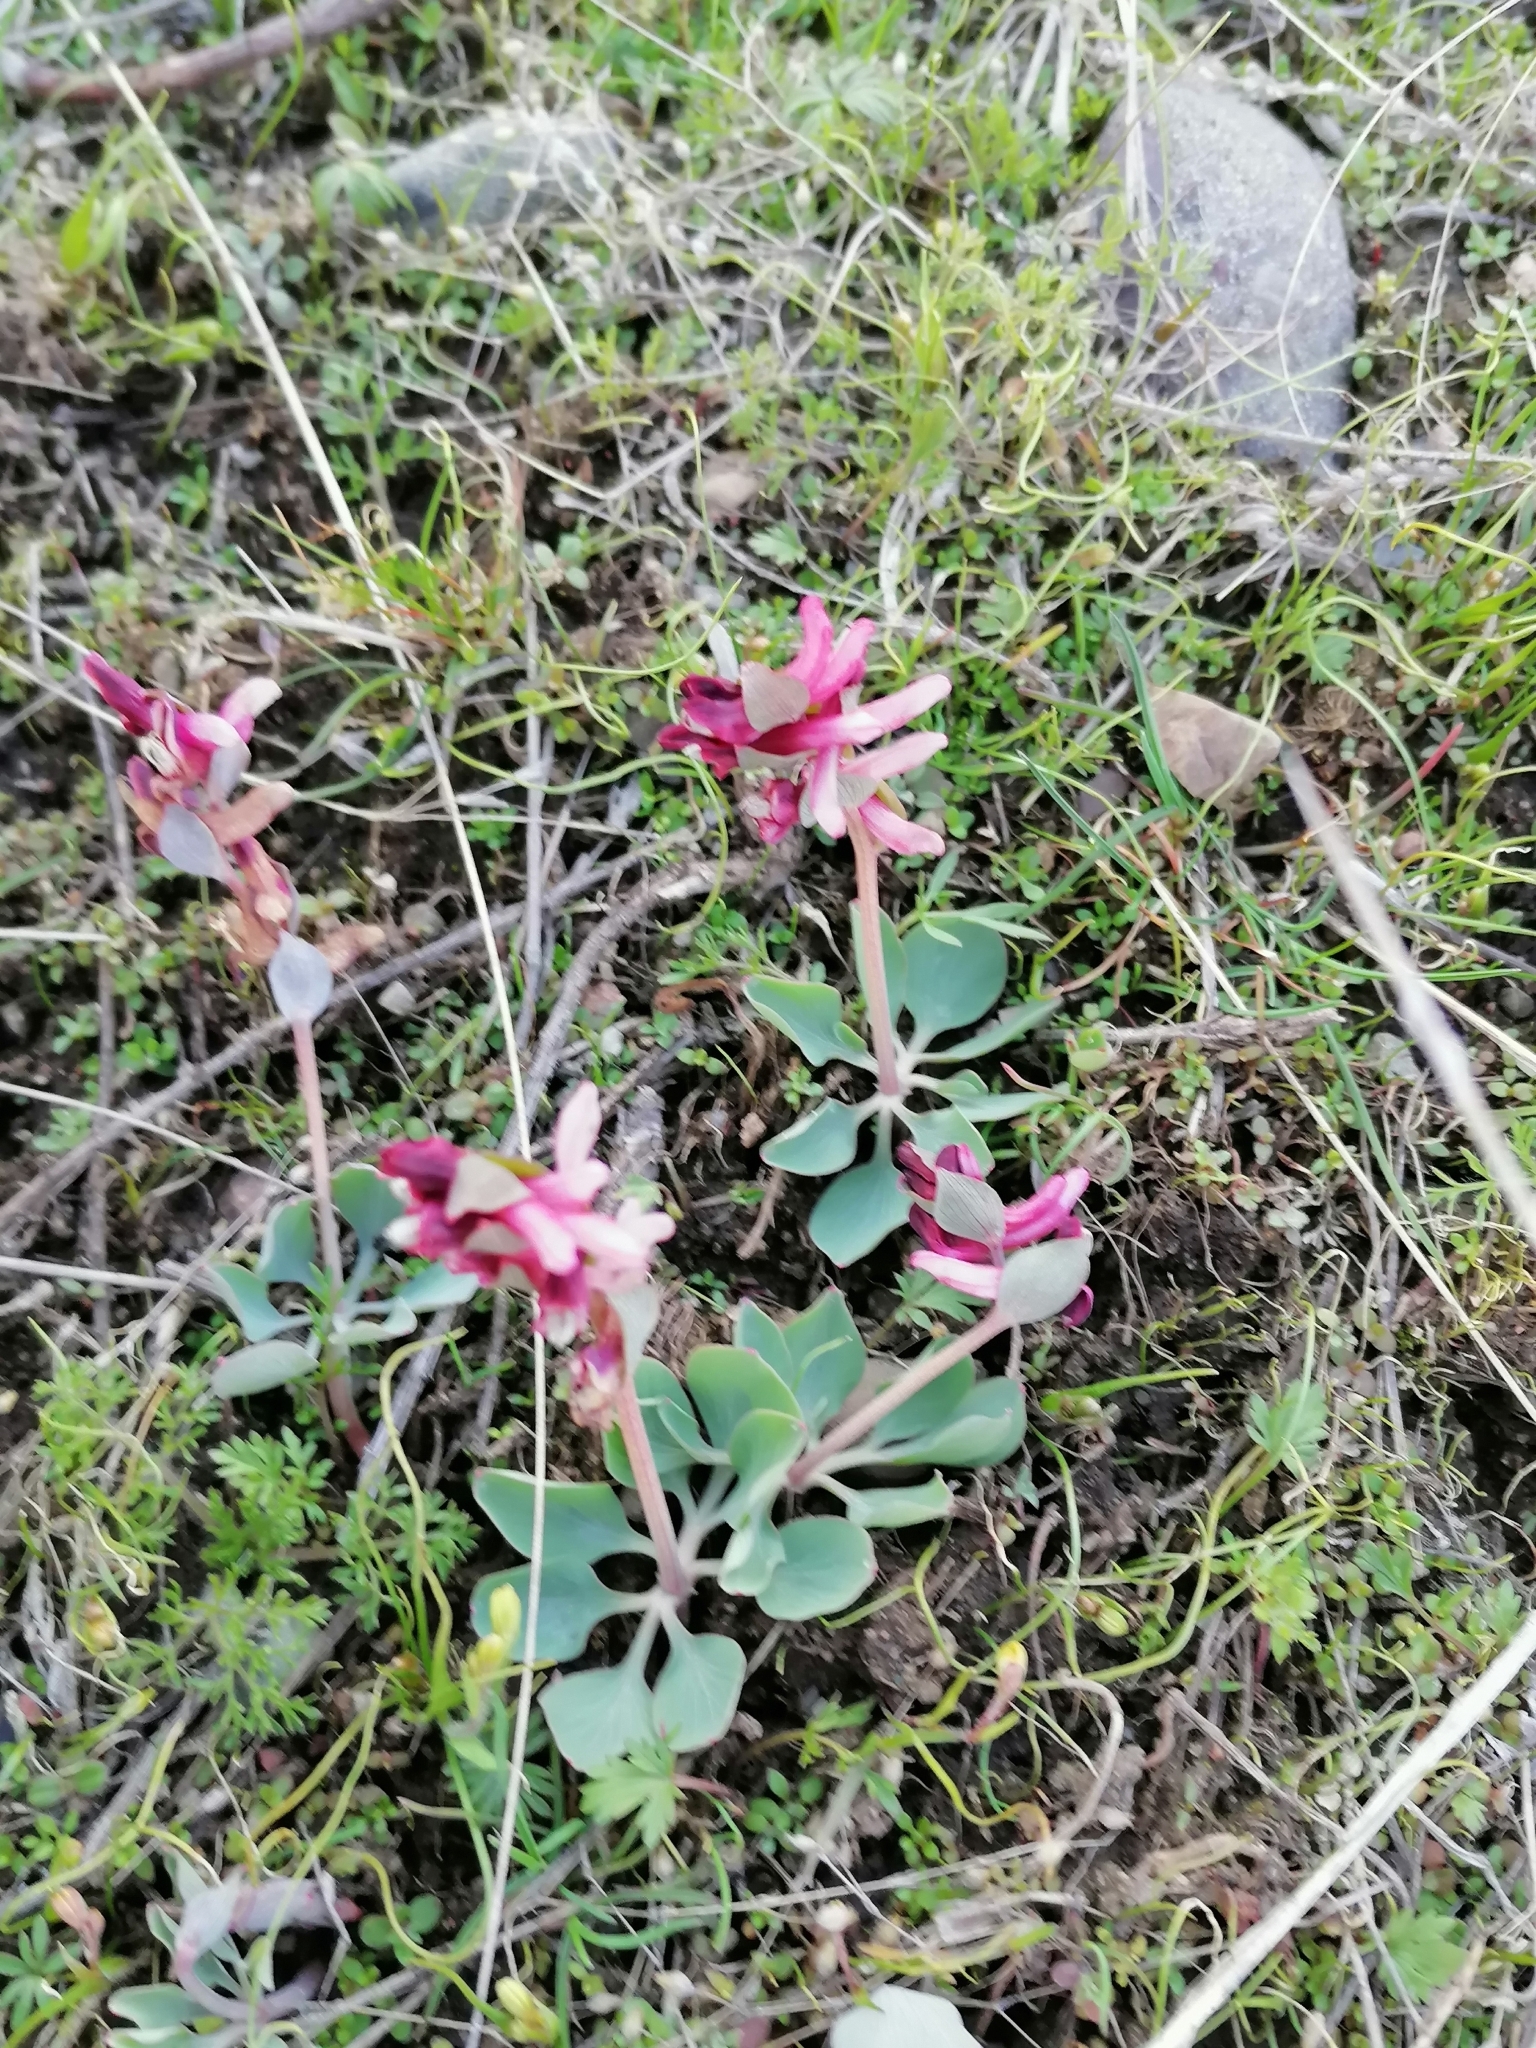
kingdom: Plantae
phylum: Tracheophyta
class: Magnoliopsida
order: Ranunculales
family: Papaveraceae
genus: Corydalis
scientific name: Corydalis ledebouriana
